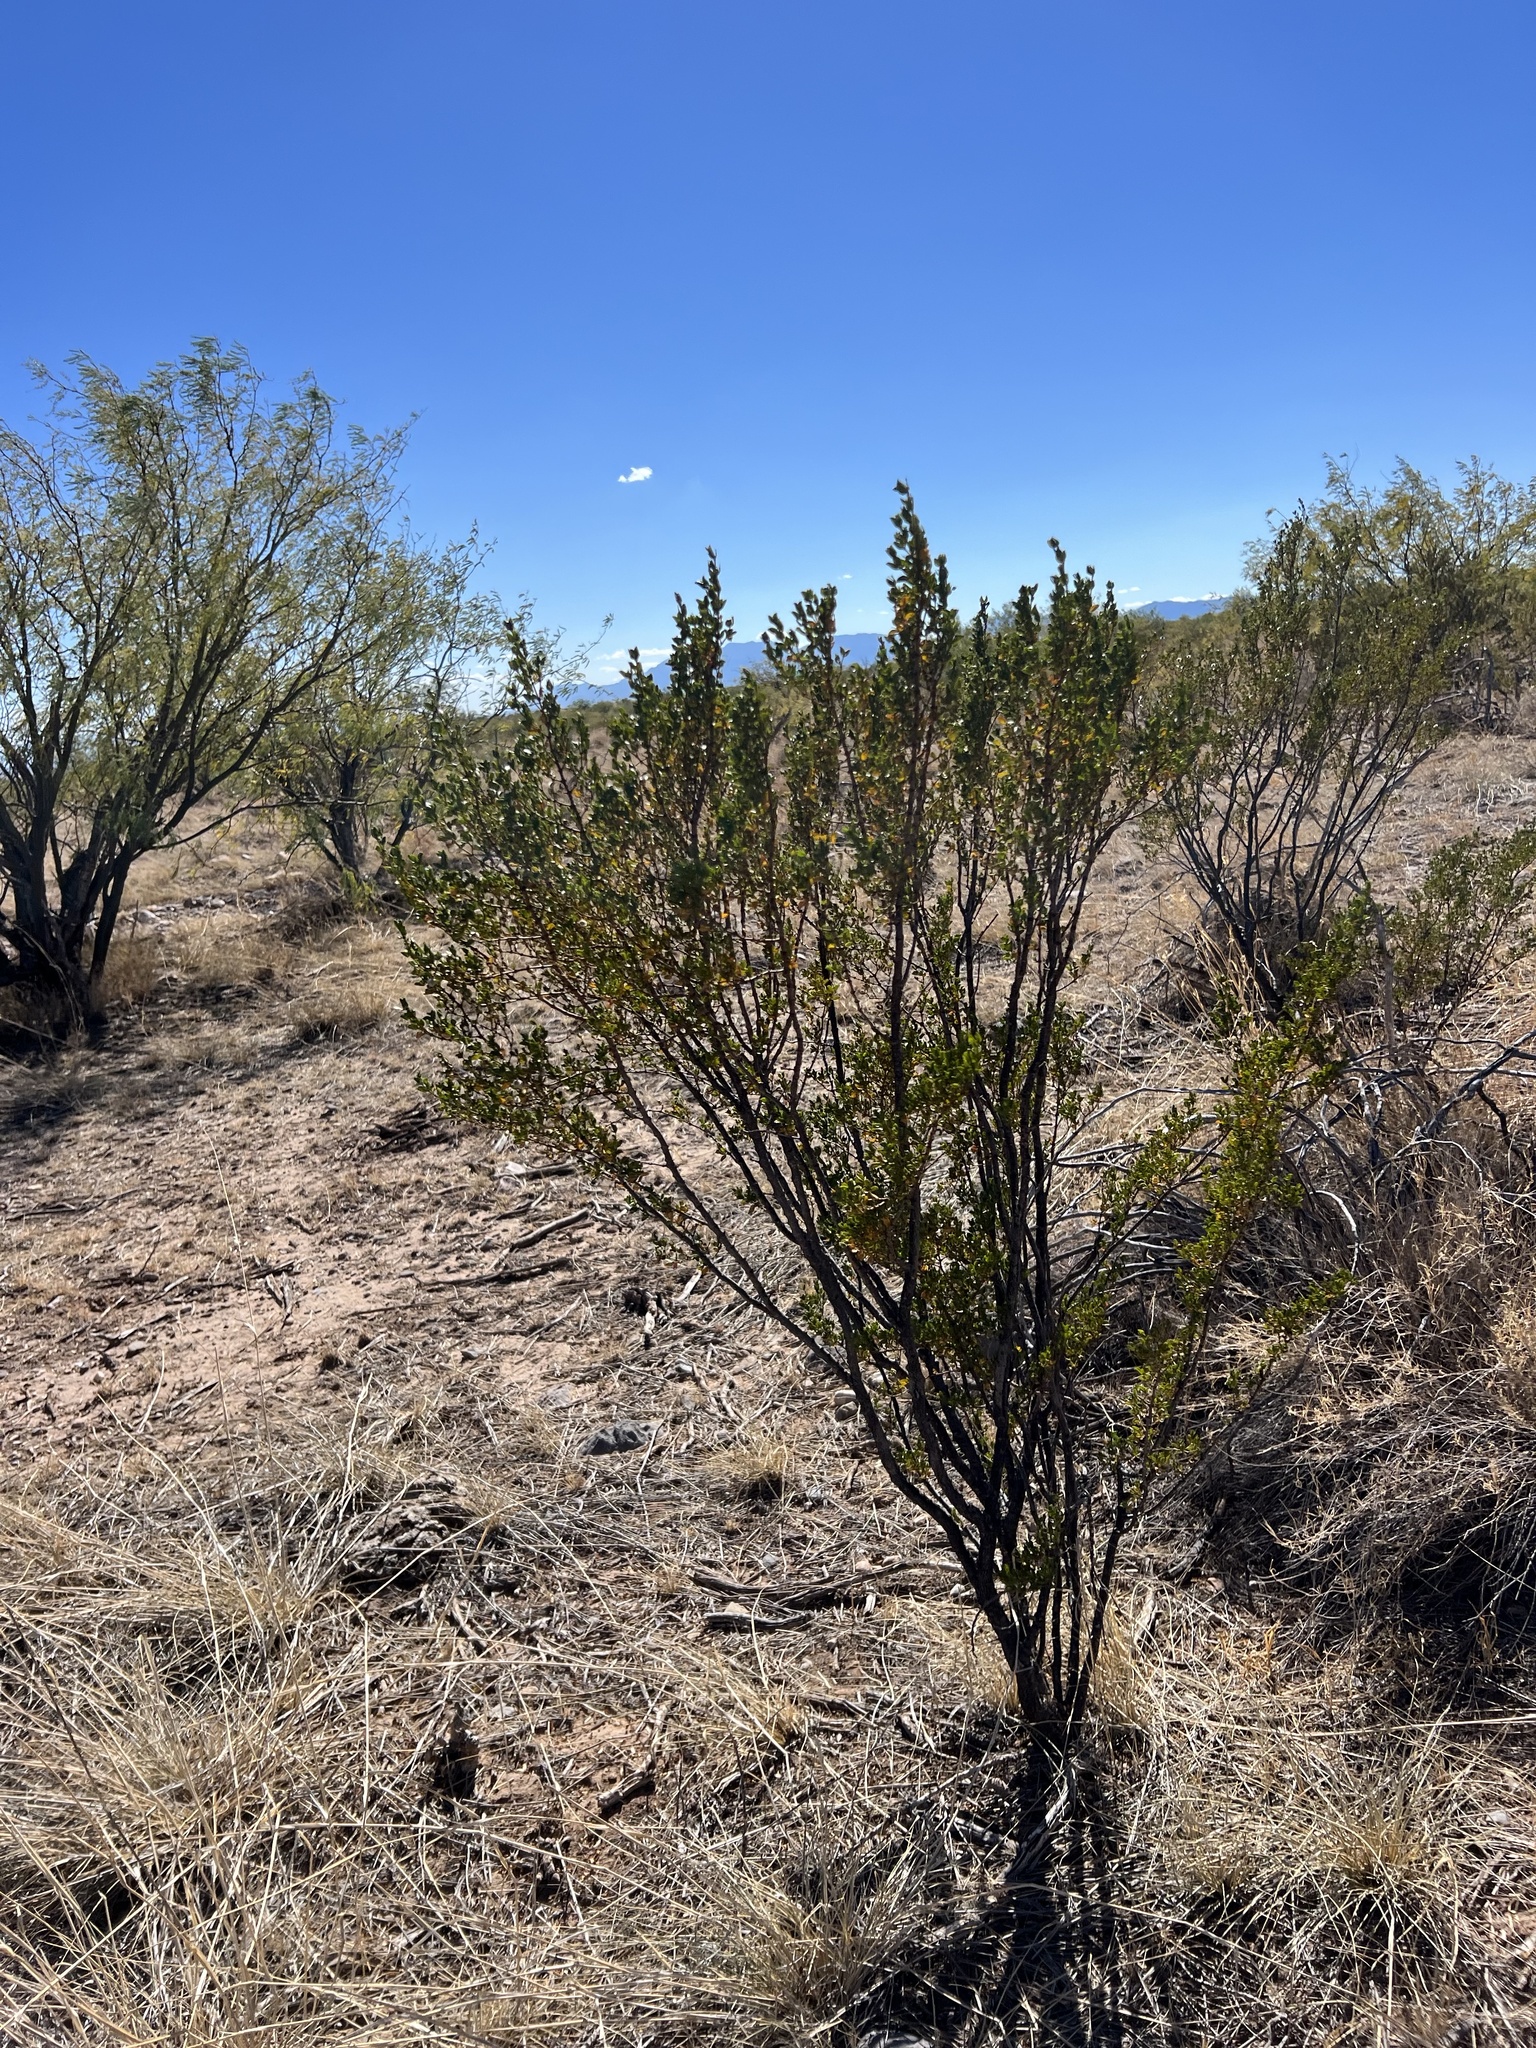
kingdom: Plantae
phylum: Tracheophyta
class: Magnoliopsida
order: Zygophyllales
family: Zygophyllaceae
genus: Larrea
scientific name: Larrea tridentata
